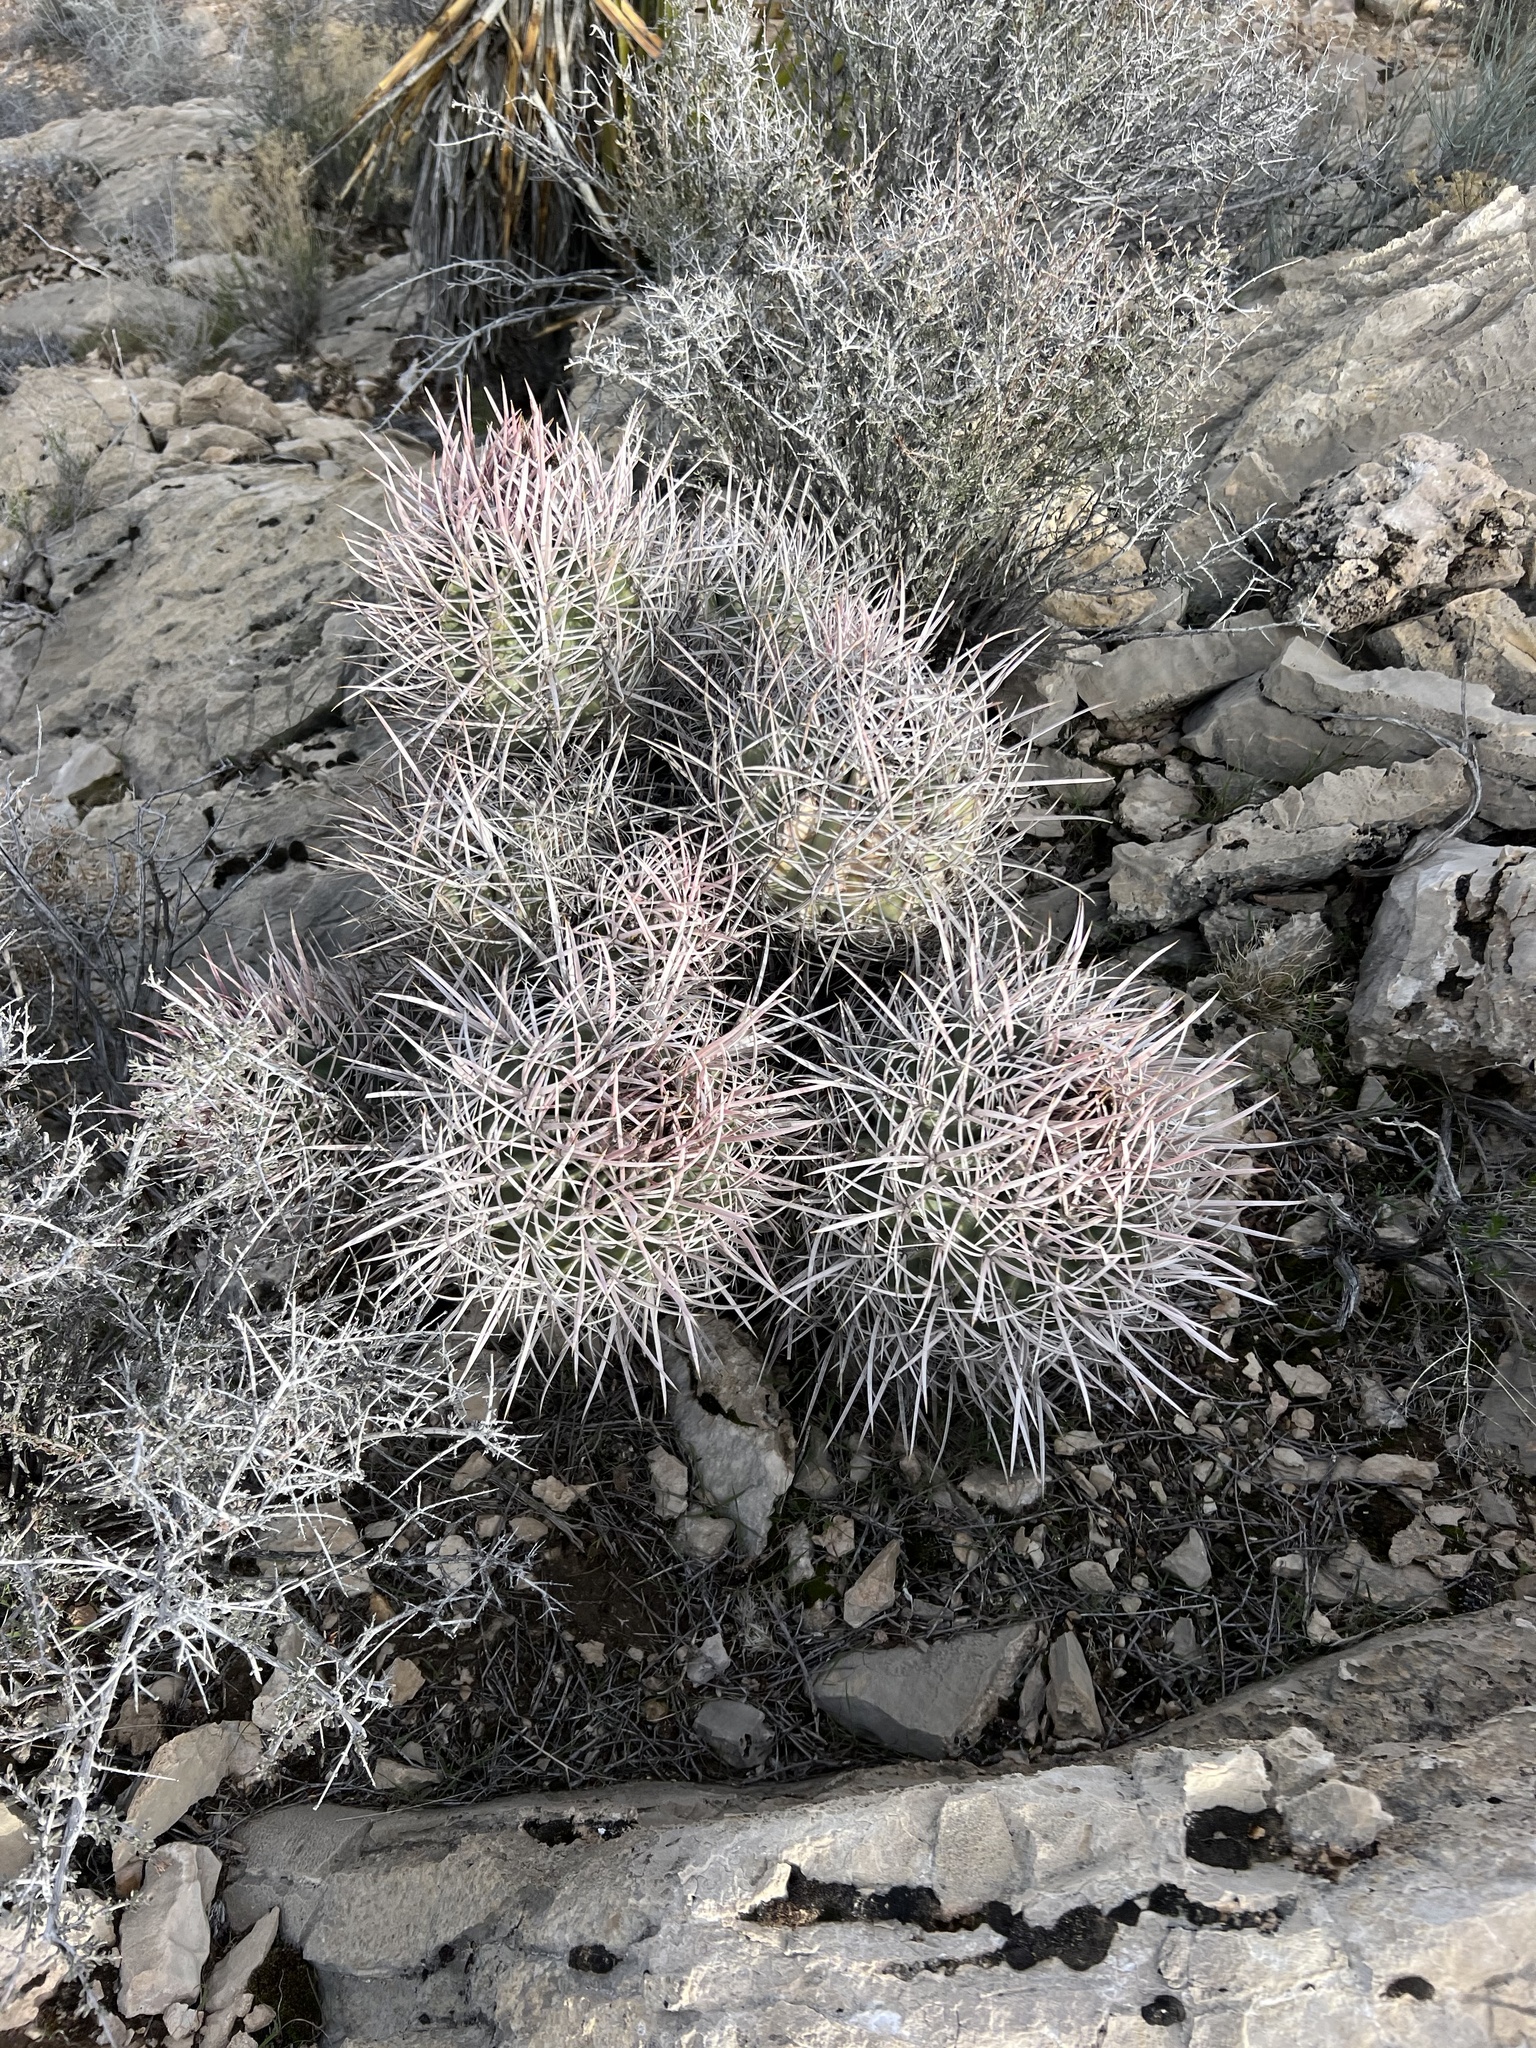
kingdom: Plantae
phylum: Tracheophyta
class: Magnoliopsida
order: Caryophyllales
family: Cactaceae
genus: Echinocactus
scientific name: Echinocactus polycephalus
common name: Cottontop cactus
